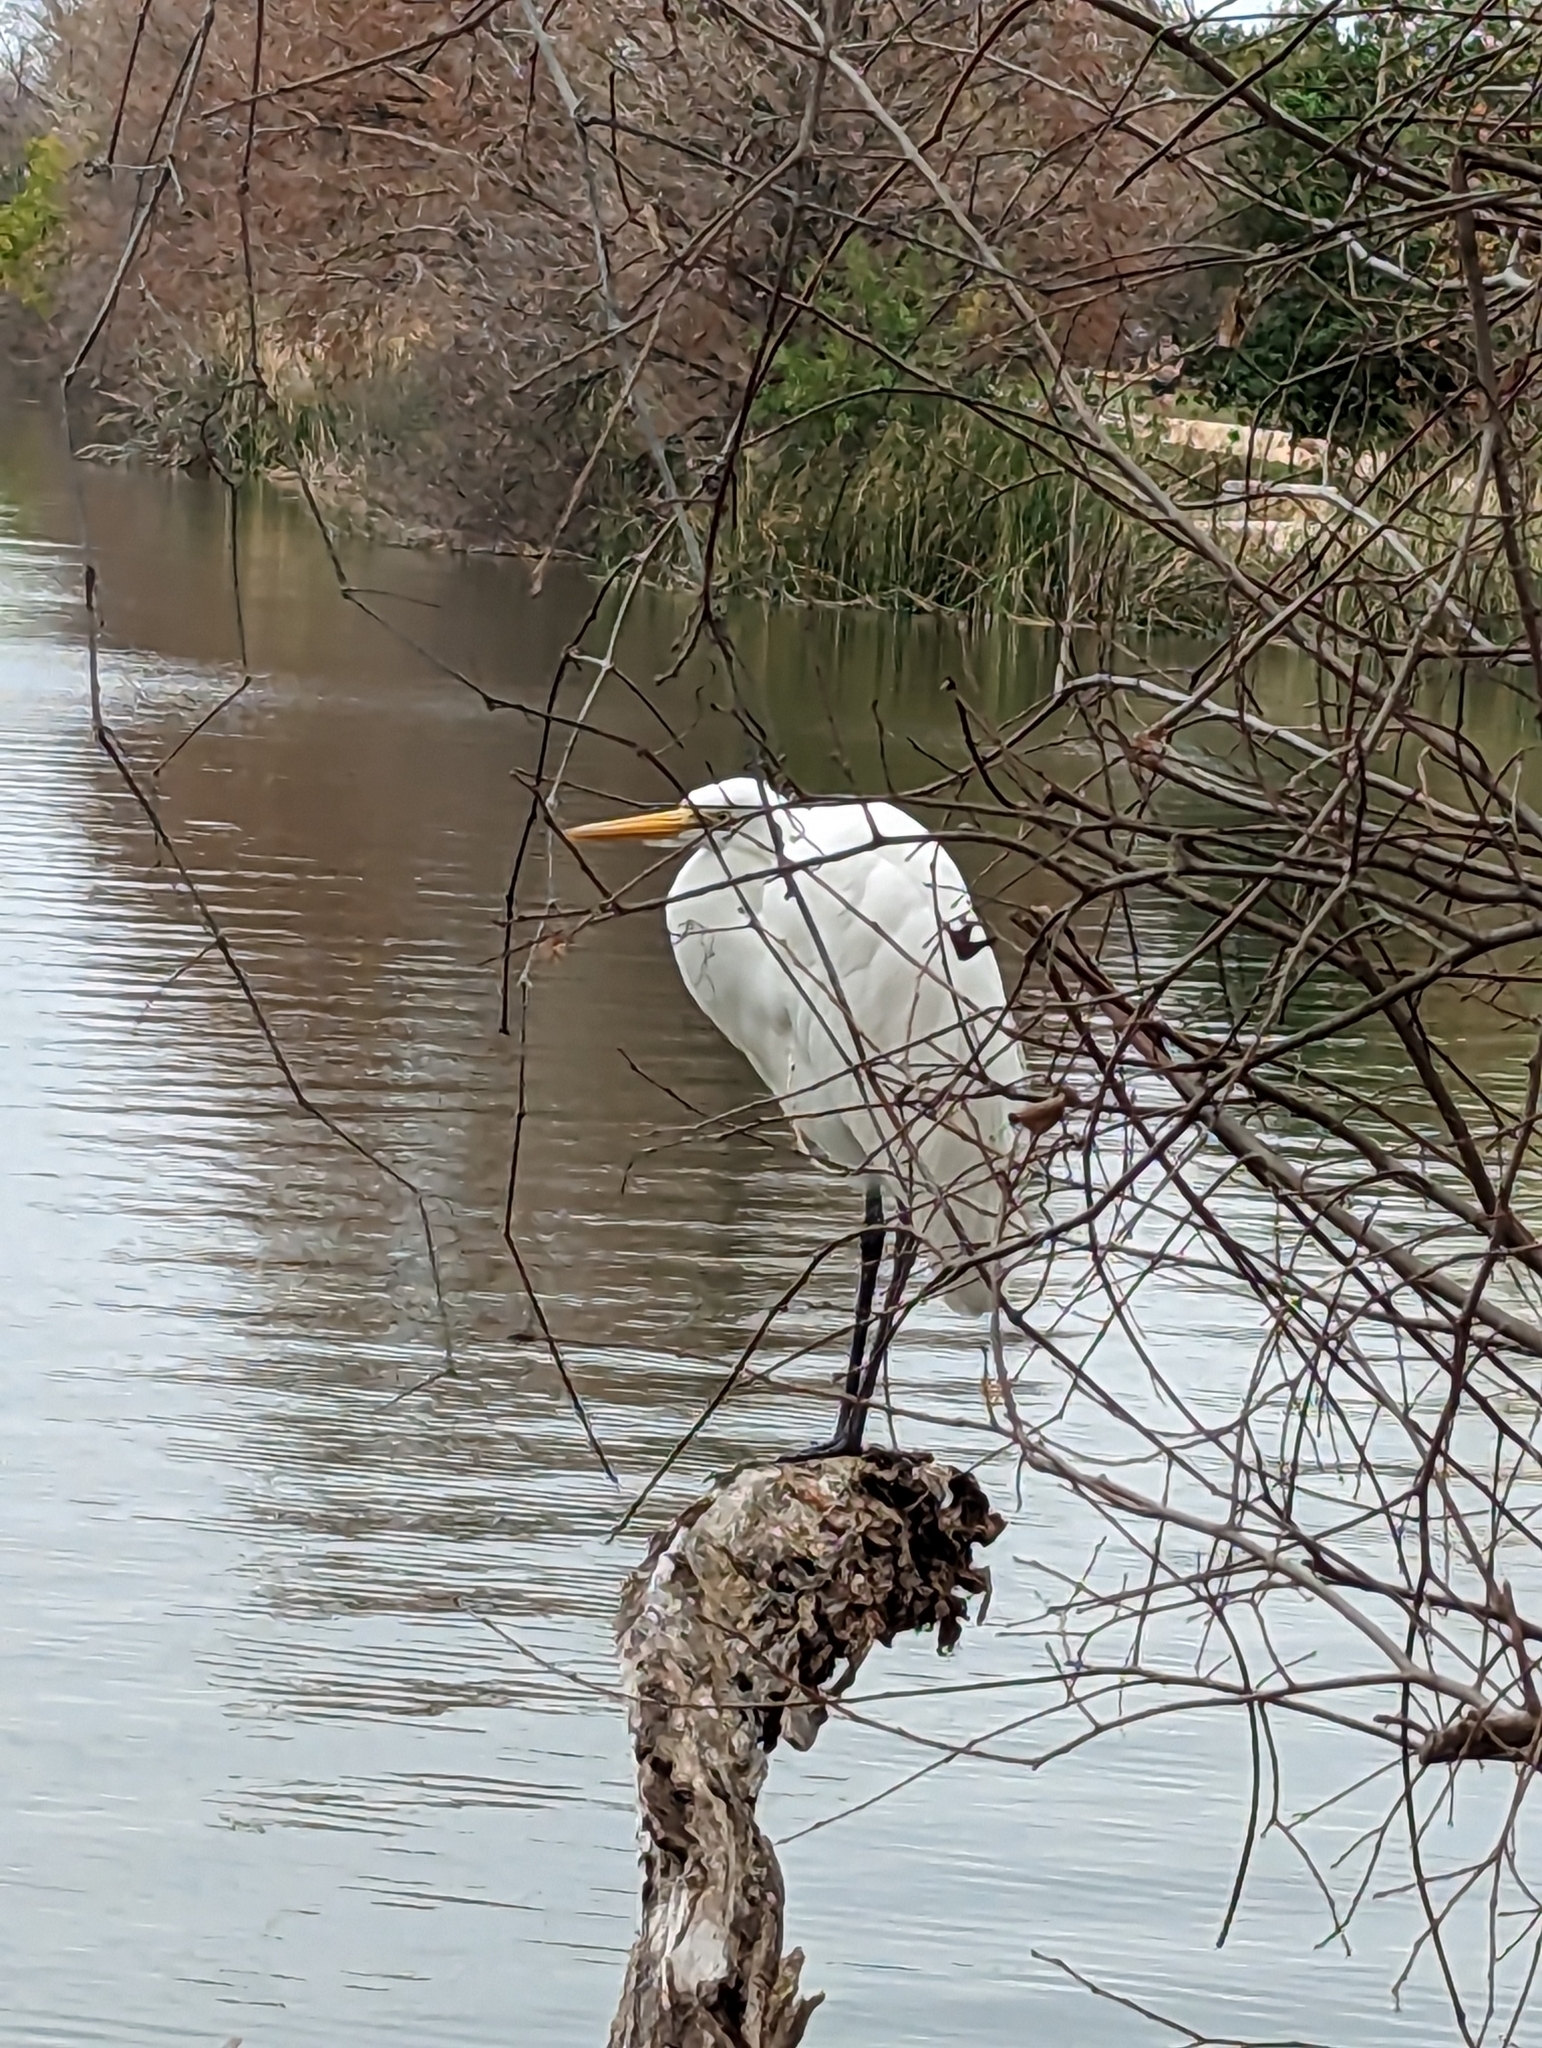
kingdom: Animalia
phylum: Chordata
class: Aves
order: Pelecaniformes
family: Ardeidae
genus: Ardea
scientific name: Ardea alba
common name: Great egret
